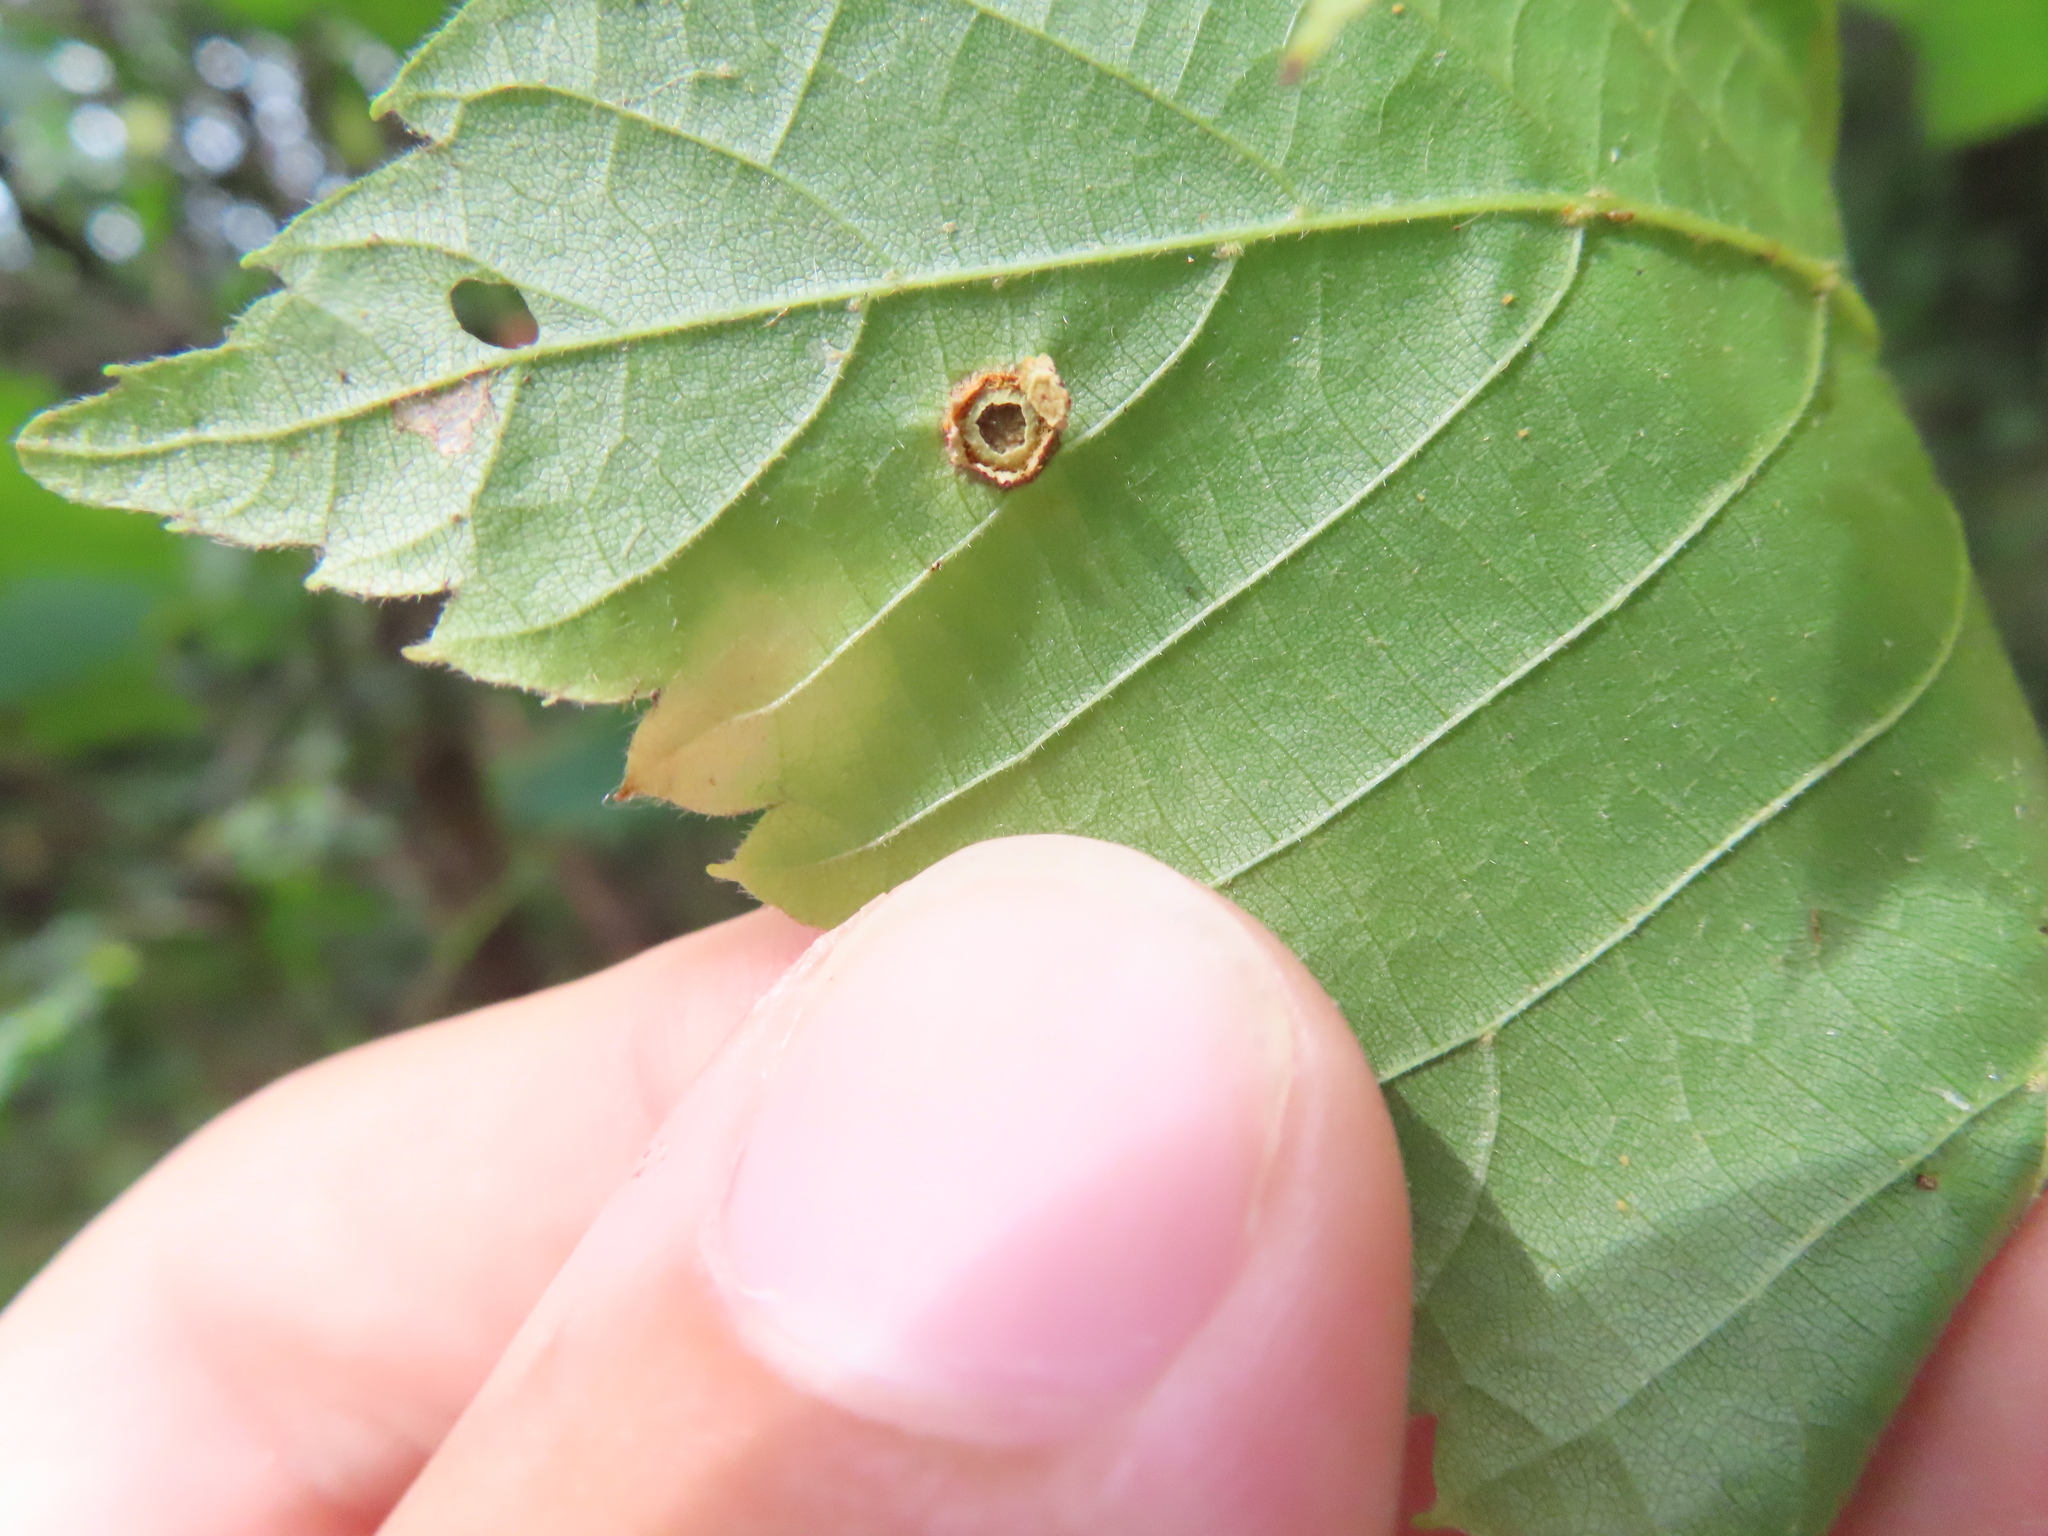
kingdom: Animalia
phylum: Arthropoda
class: Insecta
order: Diptera
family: Cecidomyiidae
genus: Contarinia
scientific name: Contarinia verrucicola
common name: Linden wart gall midge
